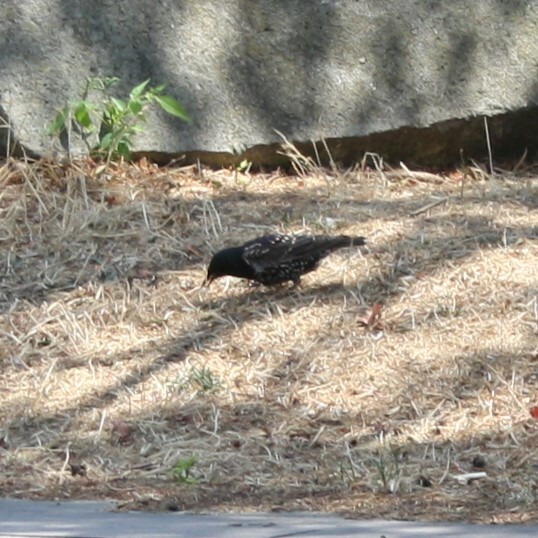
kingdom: Animalia
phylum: Chordata
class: Aves
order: Passeriformes
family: Sturnidae
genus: Sturnus
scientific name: Sturnus vulgaris
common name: Common starling
